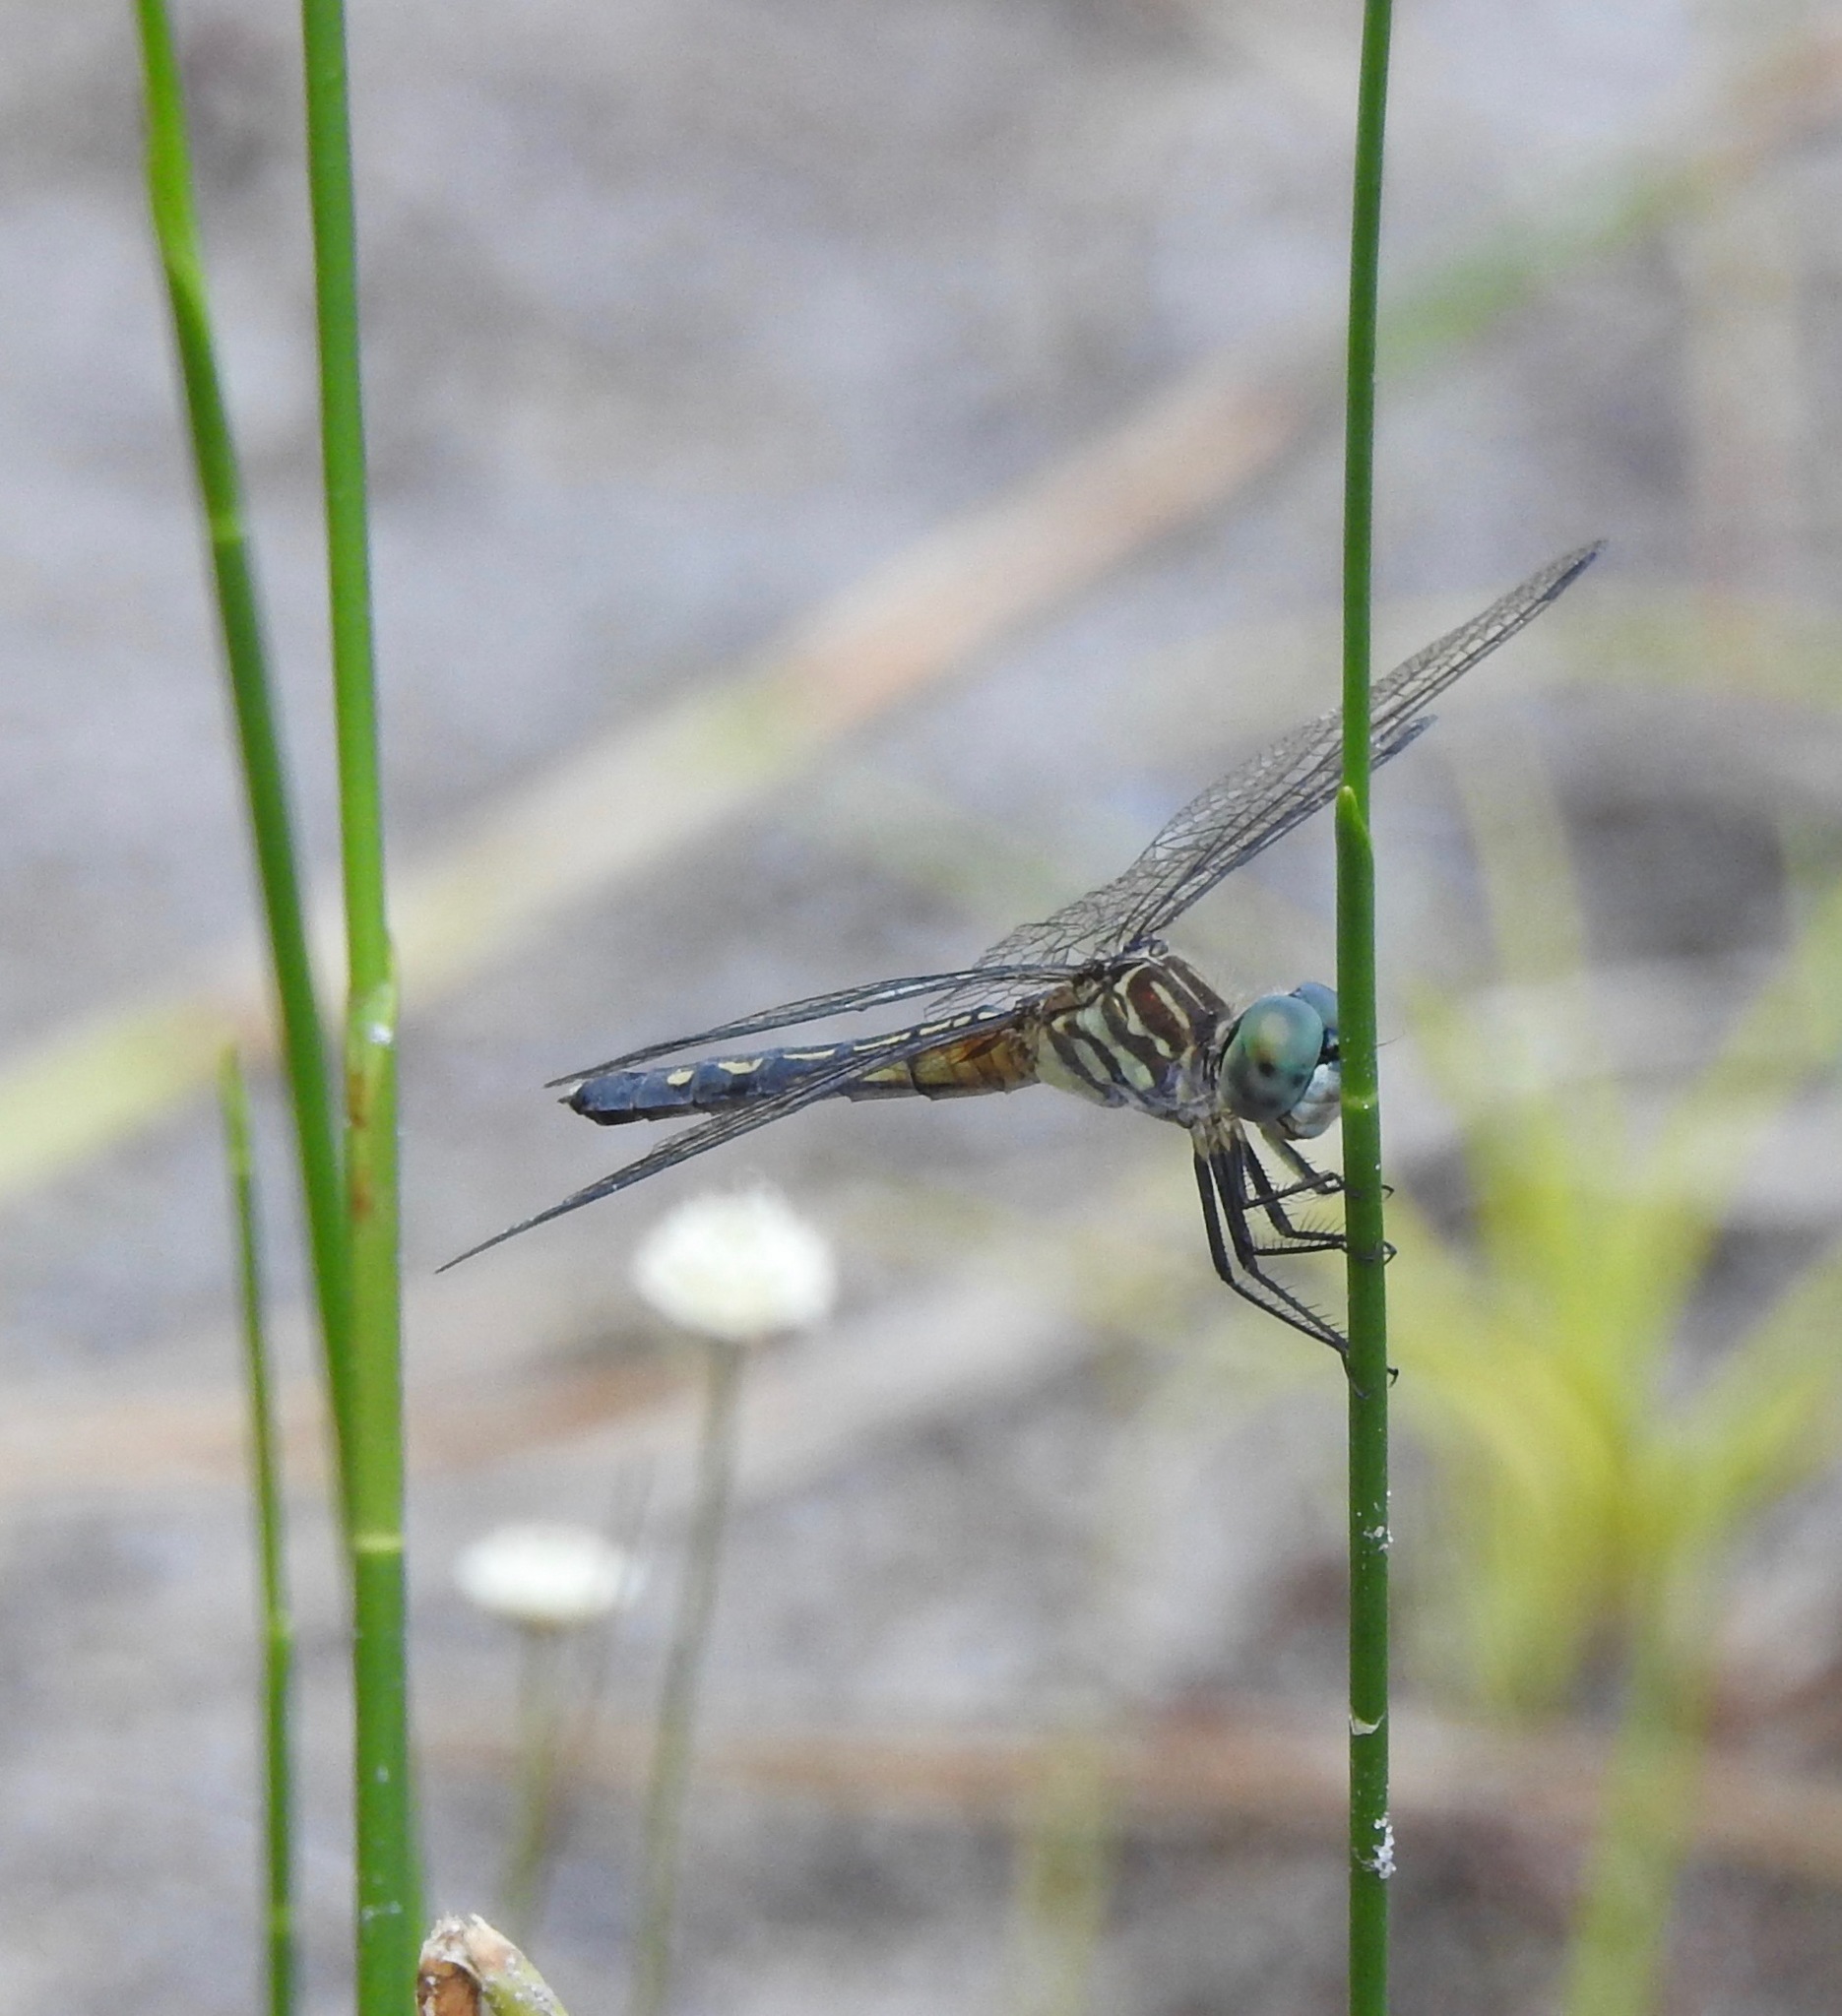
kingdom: Animalia
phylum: Arthropoda
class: Insecta
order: Odonata
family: Libellulidae
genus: Pachydiplax
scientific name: Pachydiplax longipennis
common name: Blue dasher
